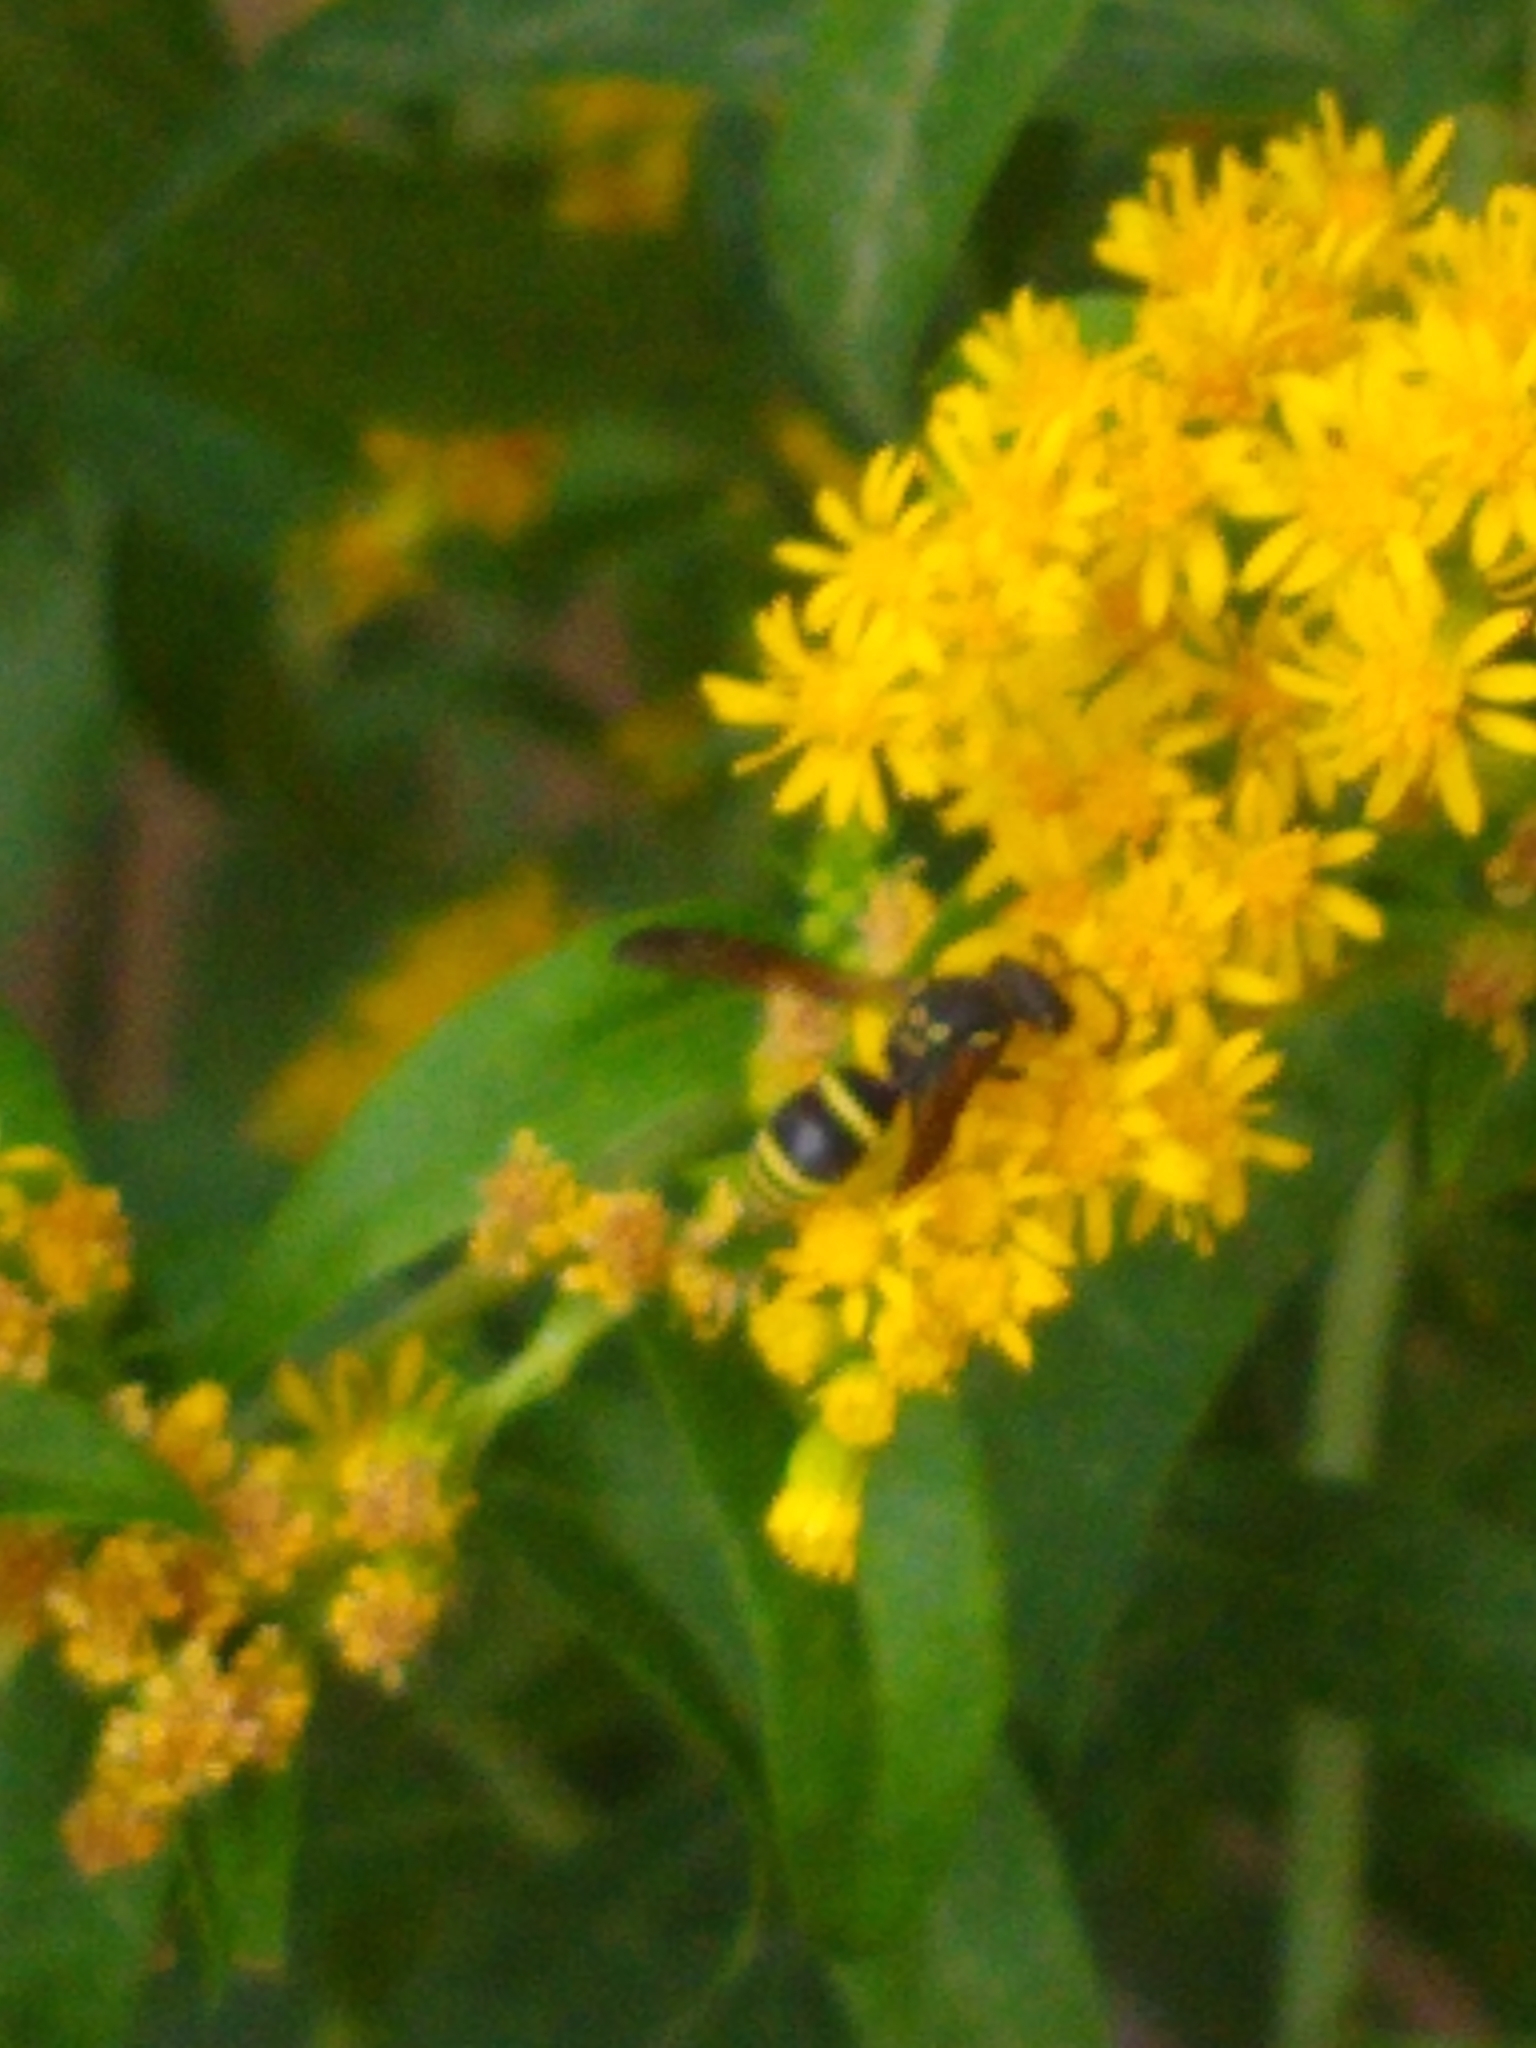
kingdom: Animalia
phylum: Arthropoda
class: Insecta
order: Hymenoptera
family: Vespidae
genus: Ancistrocerus
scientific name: Ancistrocerus adiabatus
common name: Bramble mason wasp
